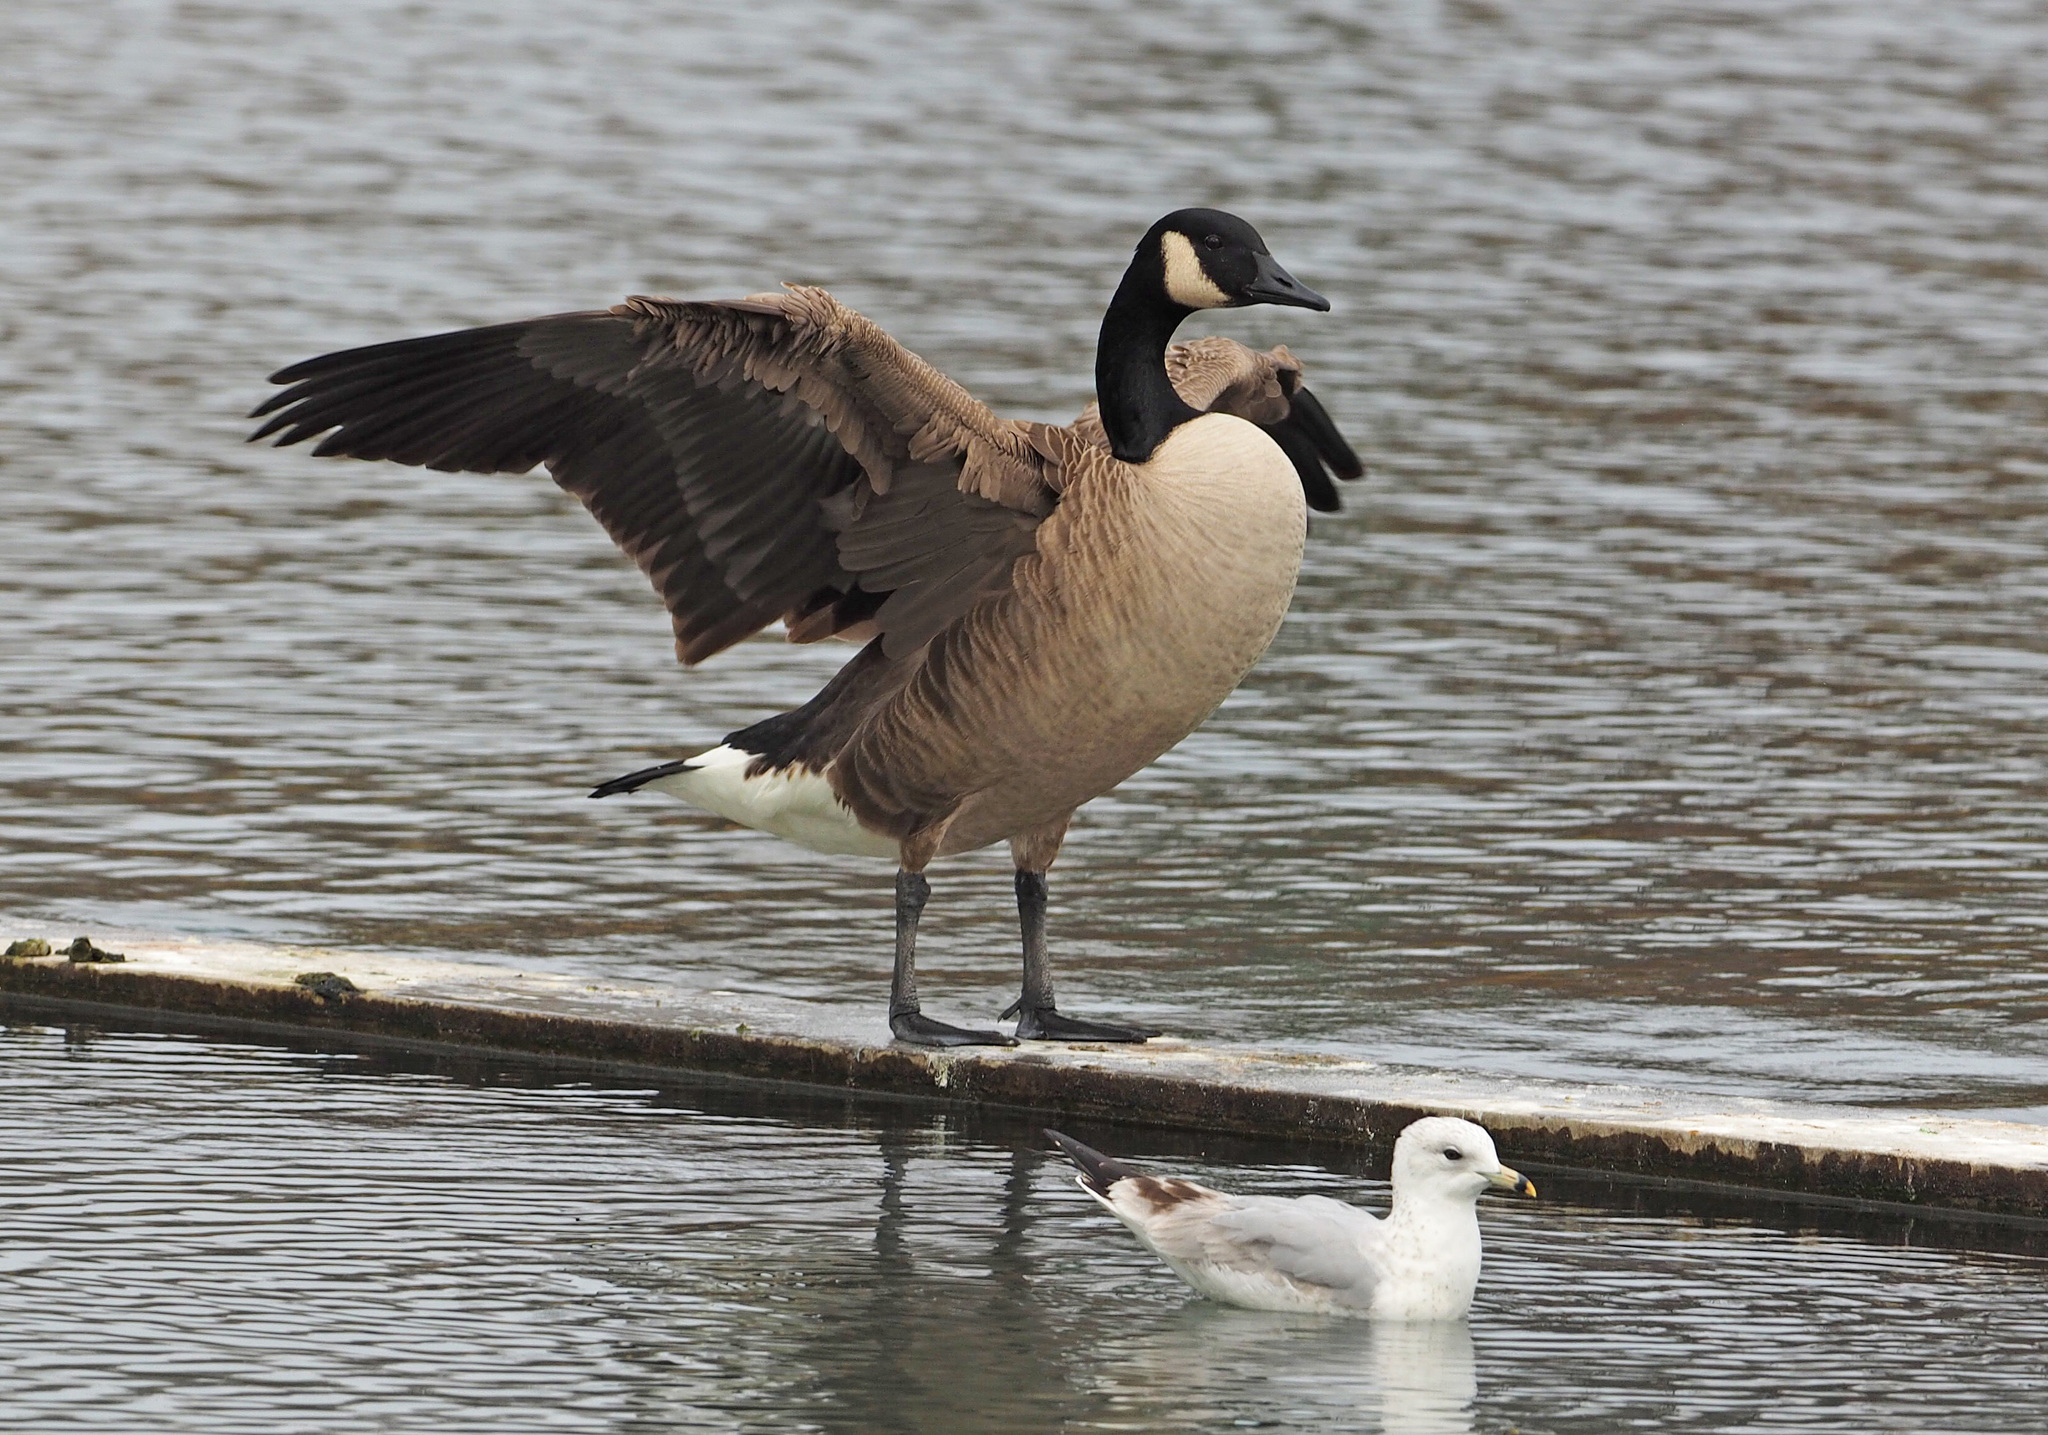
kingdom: Animalia
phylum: Chordata
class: Aves
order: Anseriformes
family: Anatidae
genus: Branta
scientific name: Branta canadensis
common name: Canada goose
